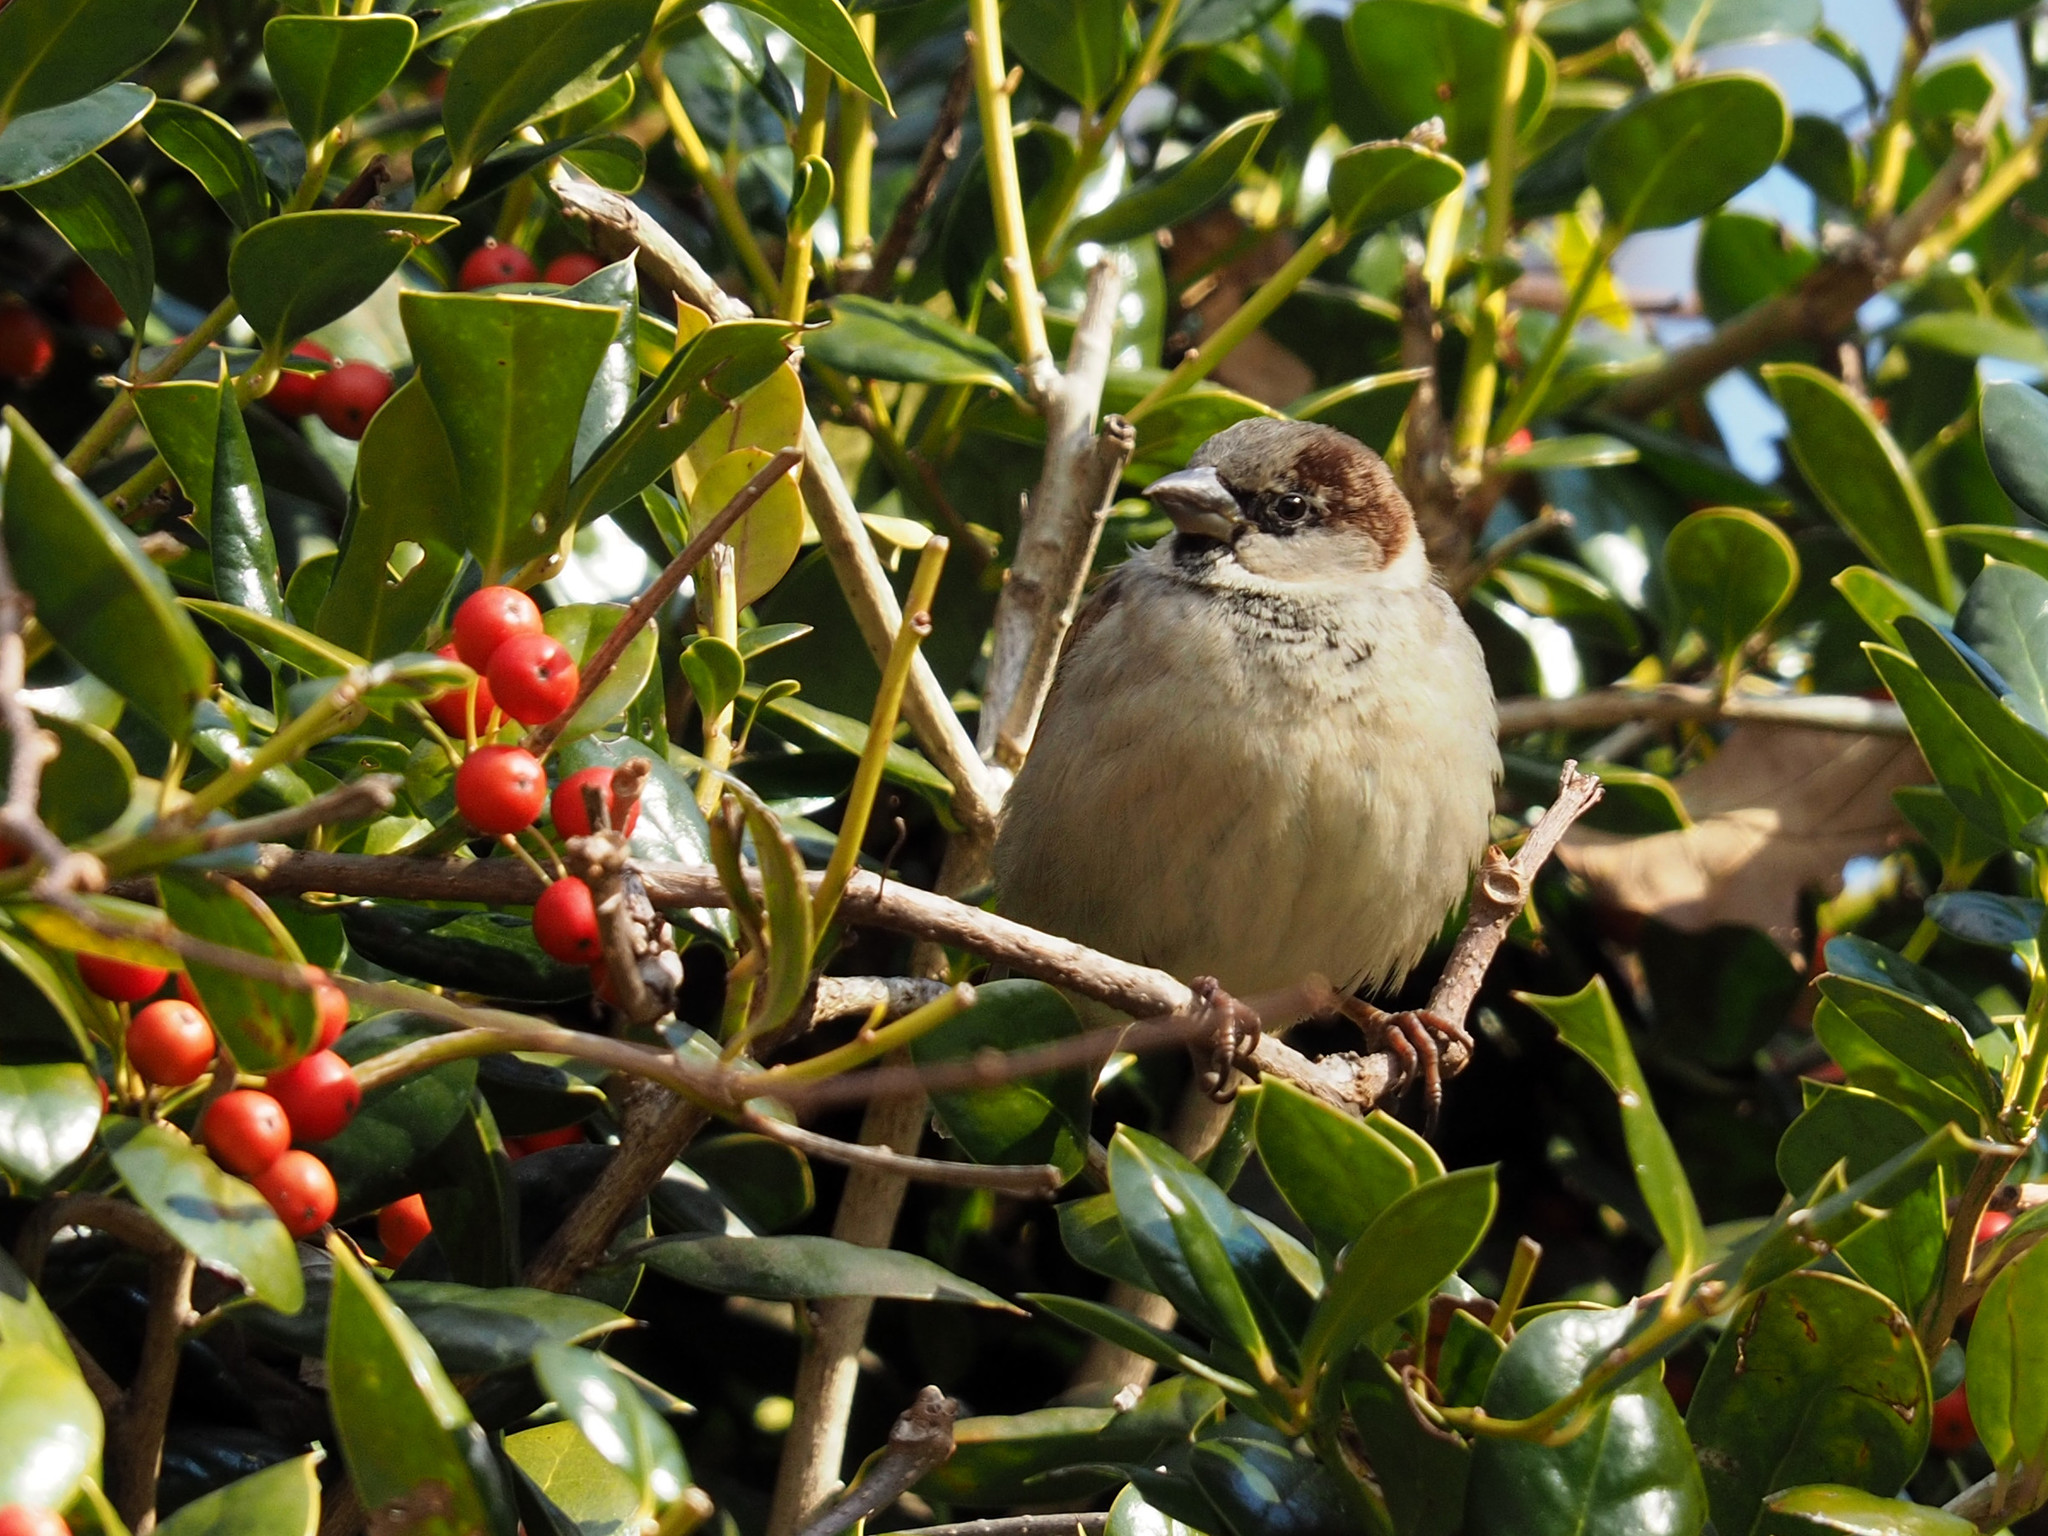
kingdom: Animalia
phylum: Chordata
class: Aves
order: Passeriformes
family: Passeridae
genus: Passer
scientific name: Passer domesticus
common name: House sparrow
